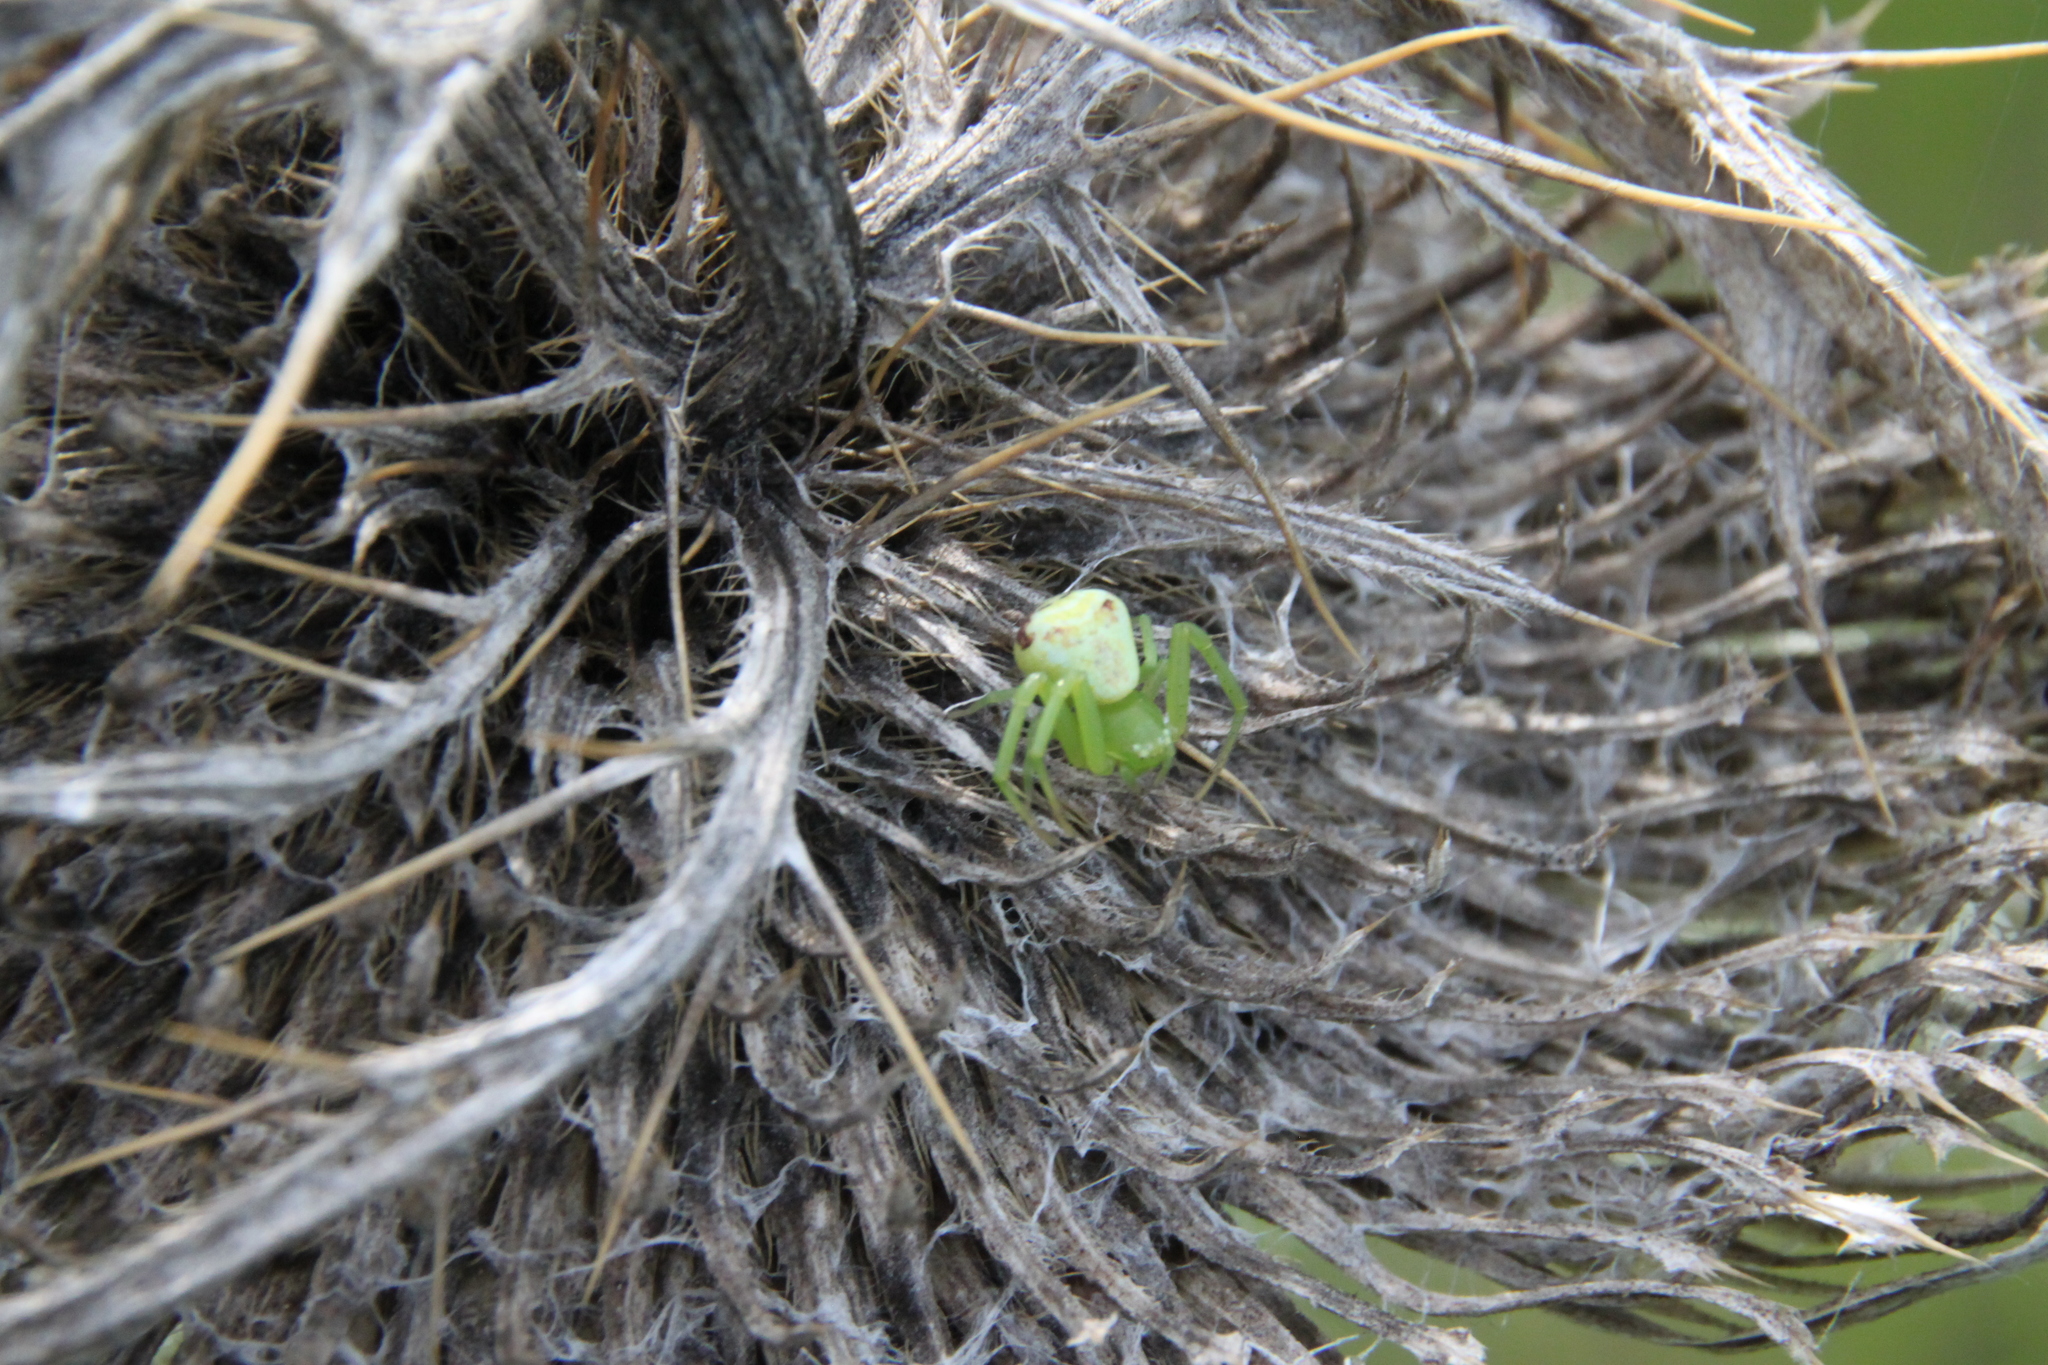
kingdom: Animalia
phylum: Arthropoda
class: Arachnida
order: Araneae
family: Thomisidae
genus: Ebrechtella
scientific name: Ebrechtella tricuspidata
